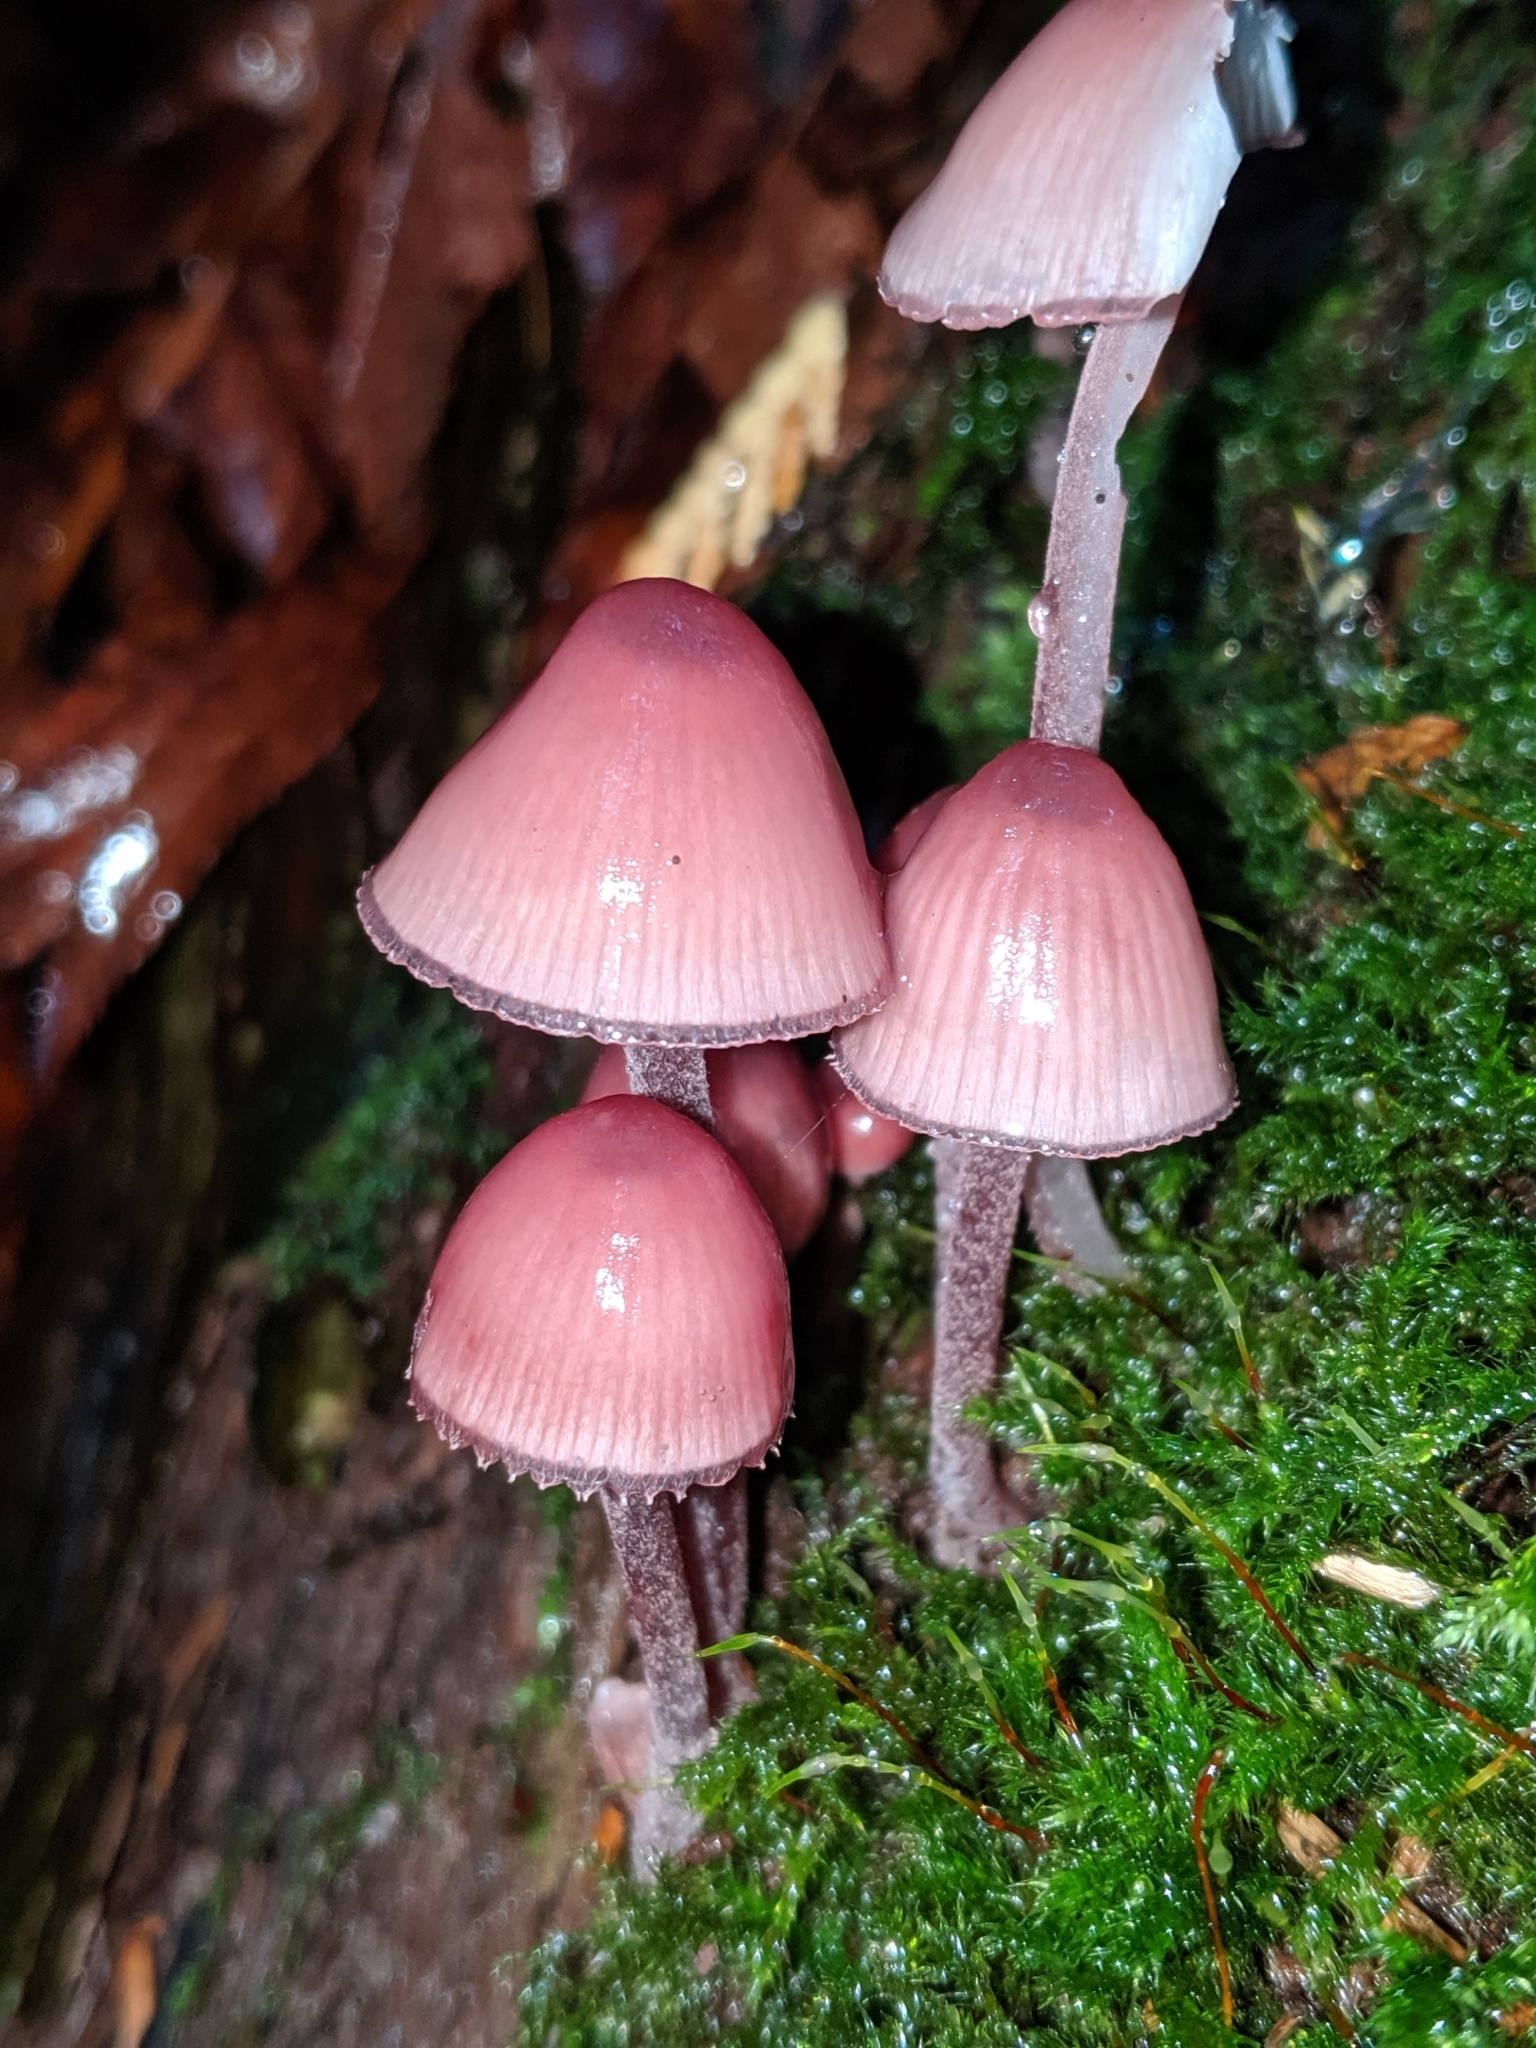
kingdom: Fungi
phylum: Basidiomycota
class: Agaricomycetes
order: Agaricales
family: Mycenaceae
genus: Mycena
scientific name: Mycena haematopus
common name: Burgundydrop bonnet
